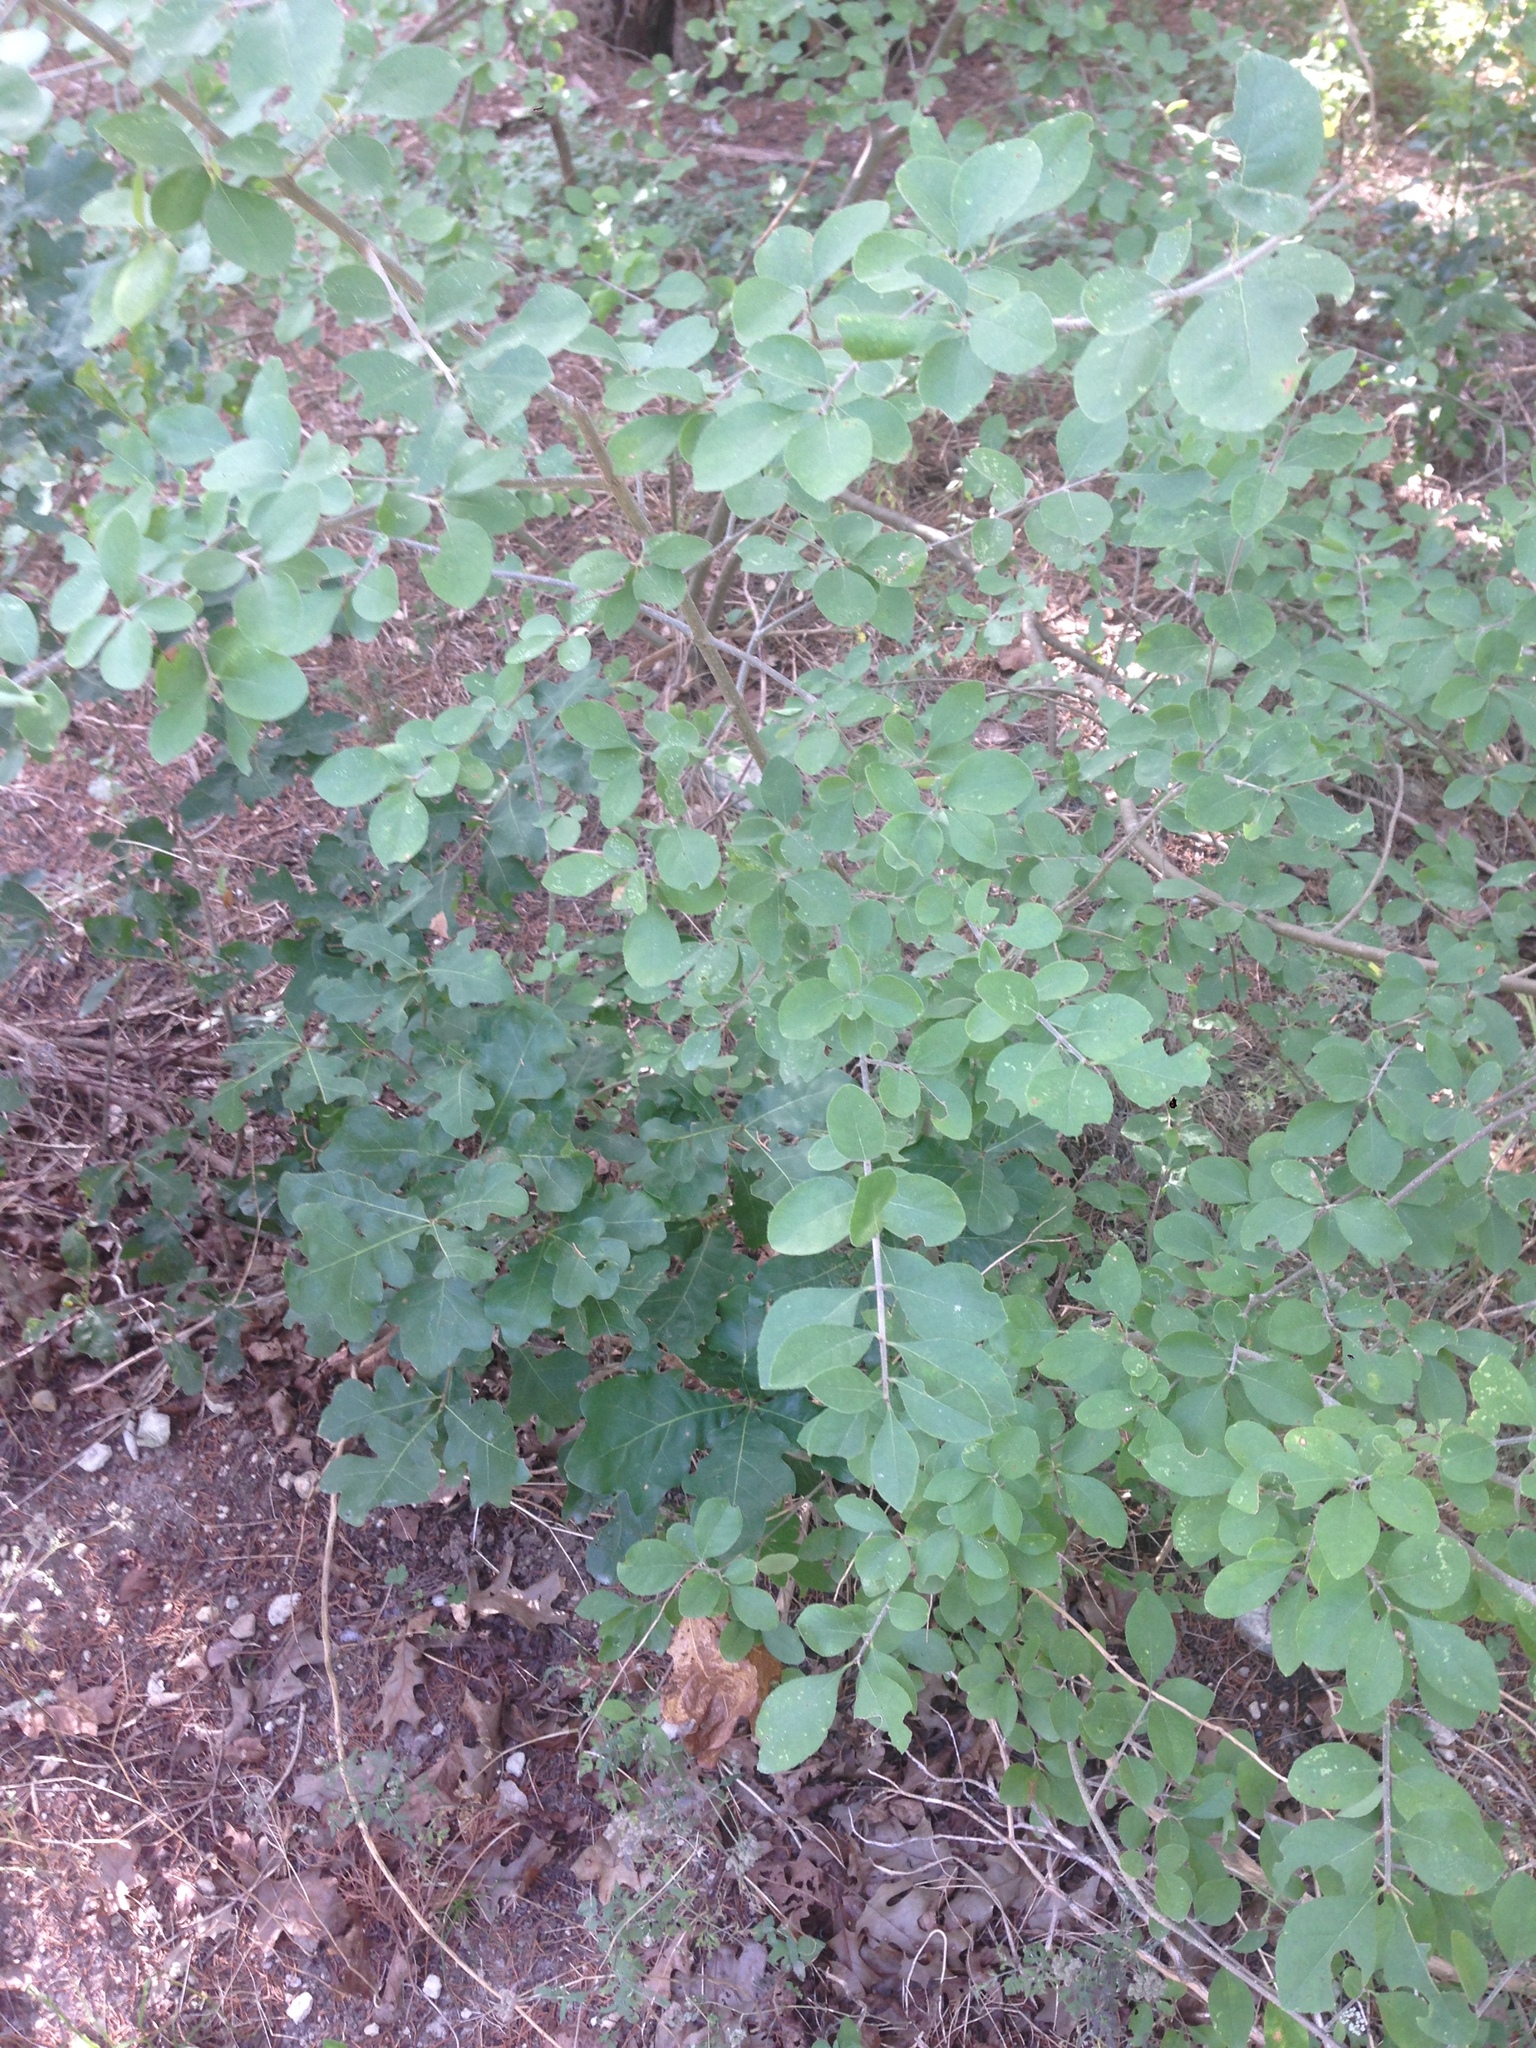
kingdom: Plantae
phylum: Tracheophyta
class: Magnoliopsida
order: Fagales
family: Fagaceae
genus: Quercus
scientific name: Quercus sinuata
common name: Durand oak
